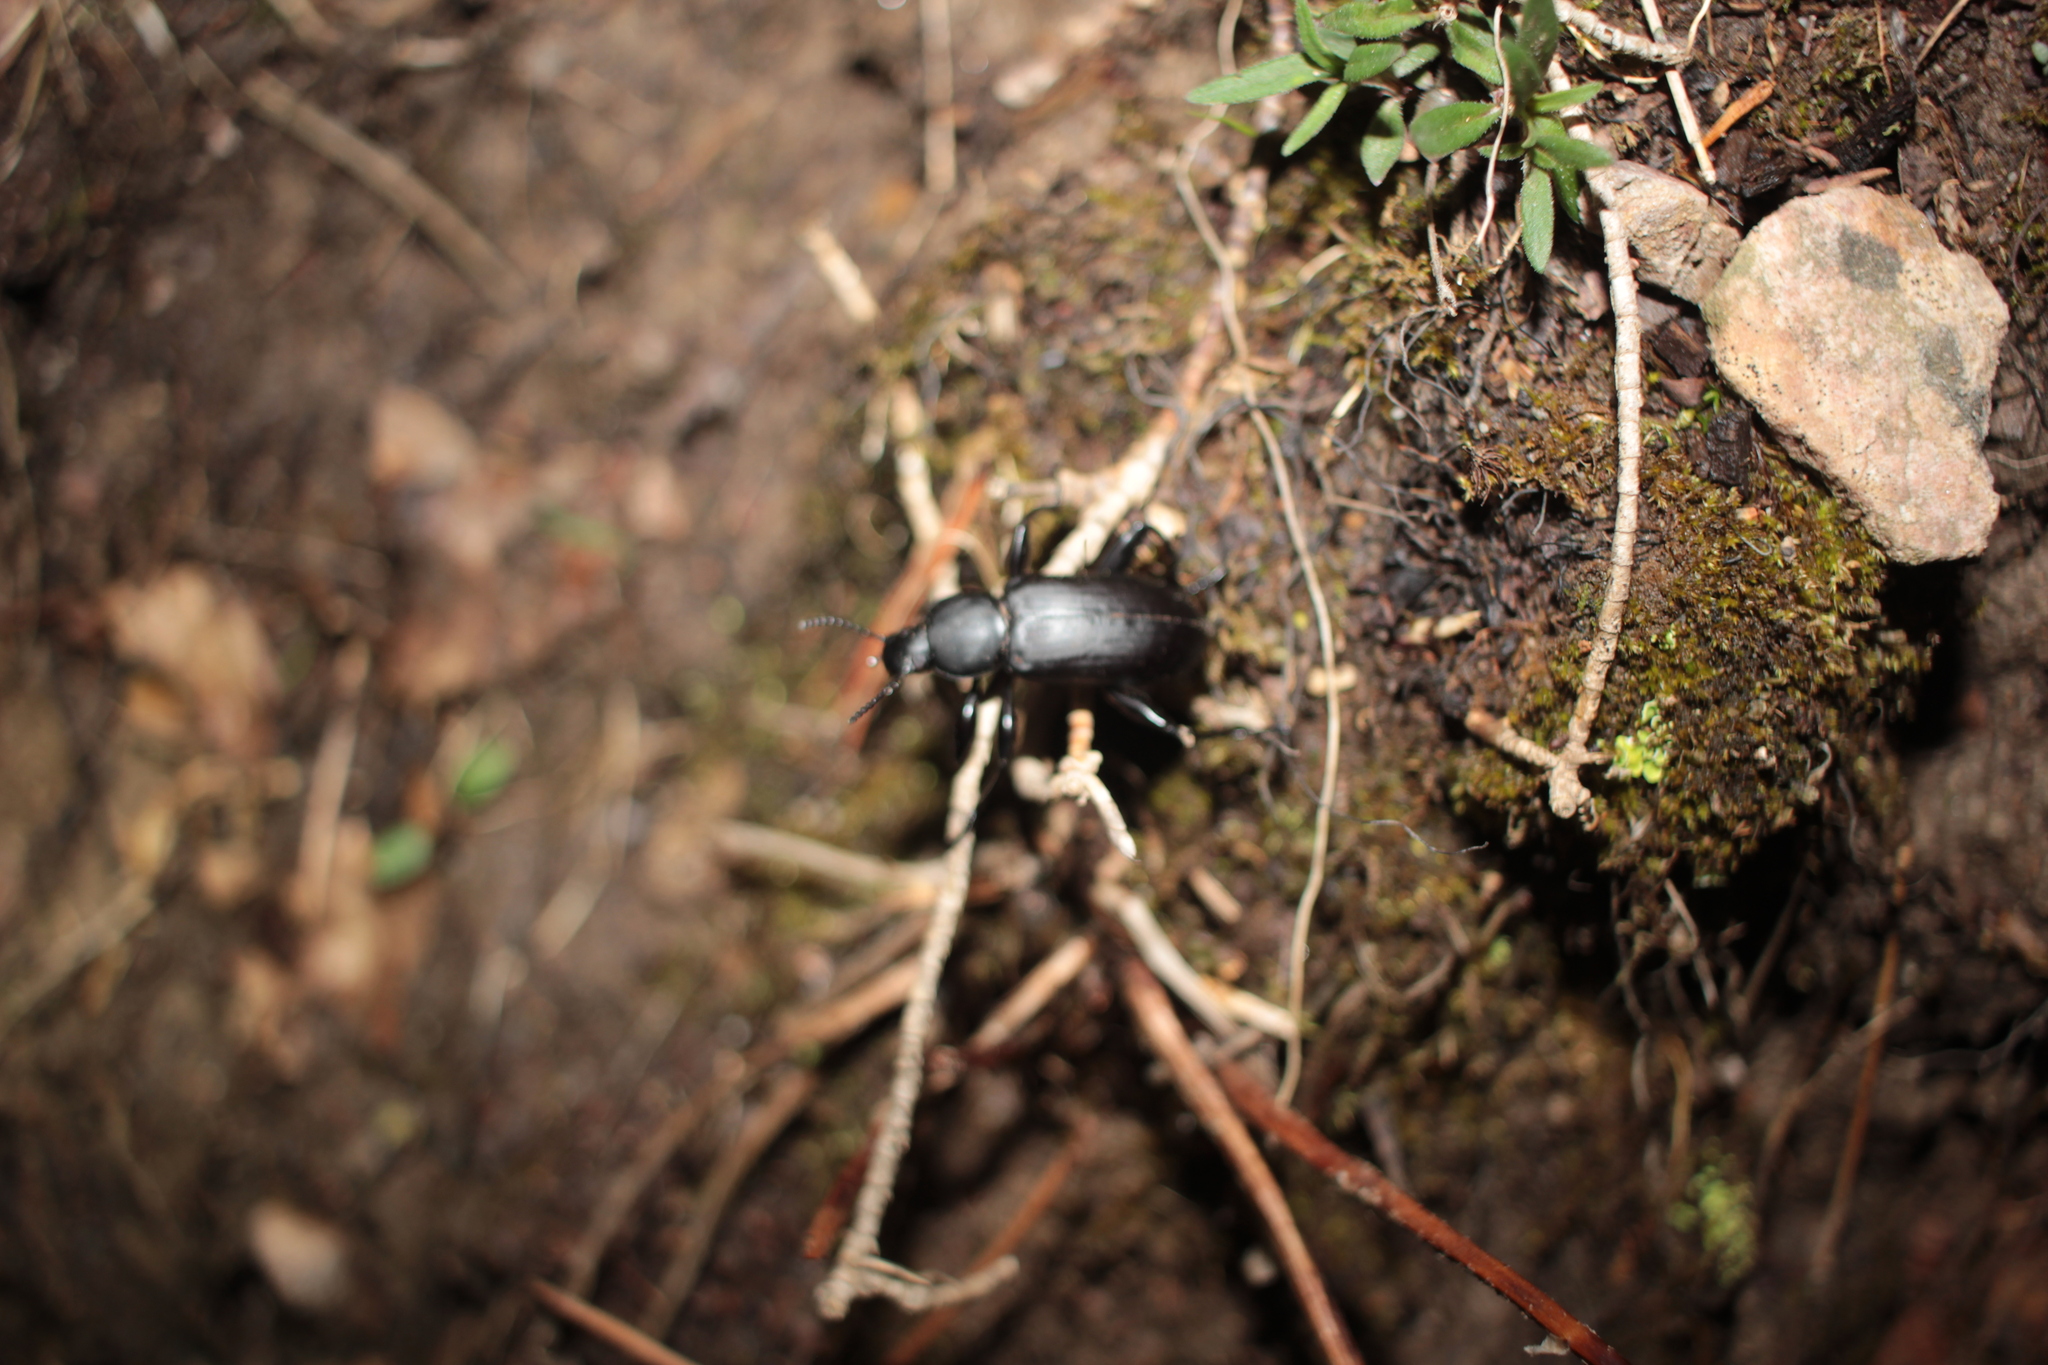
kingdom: Animalia
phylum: Arthropoda
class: Insecta
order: Coleoptera
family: Tenebrionidae
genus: Alobates
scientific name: Alobates
